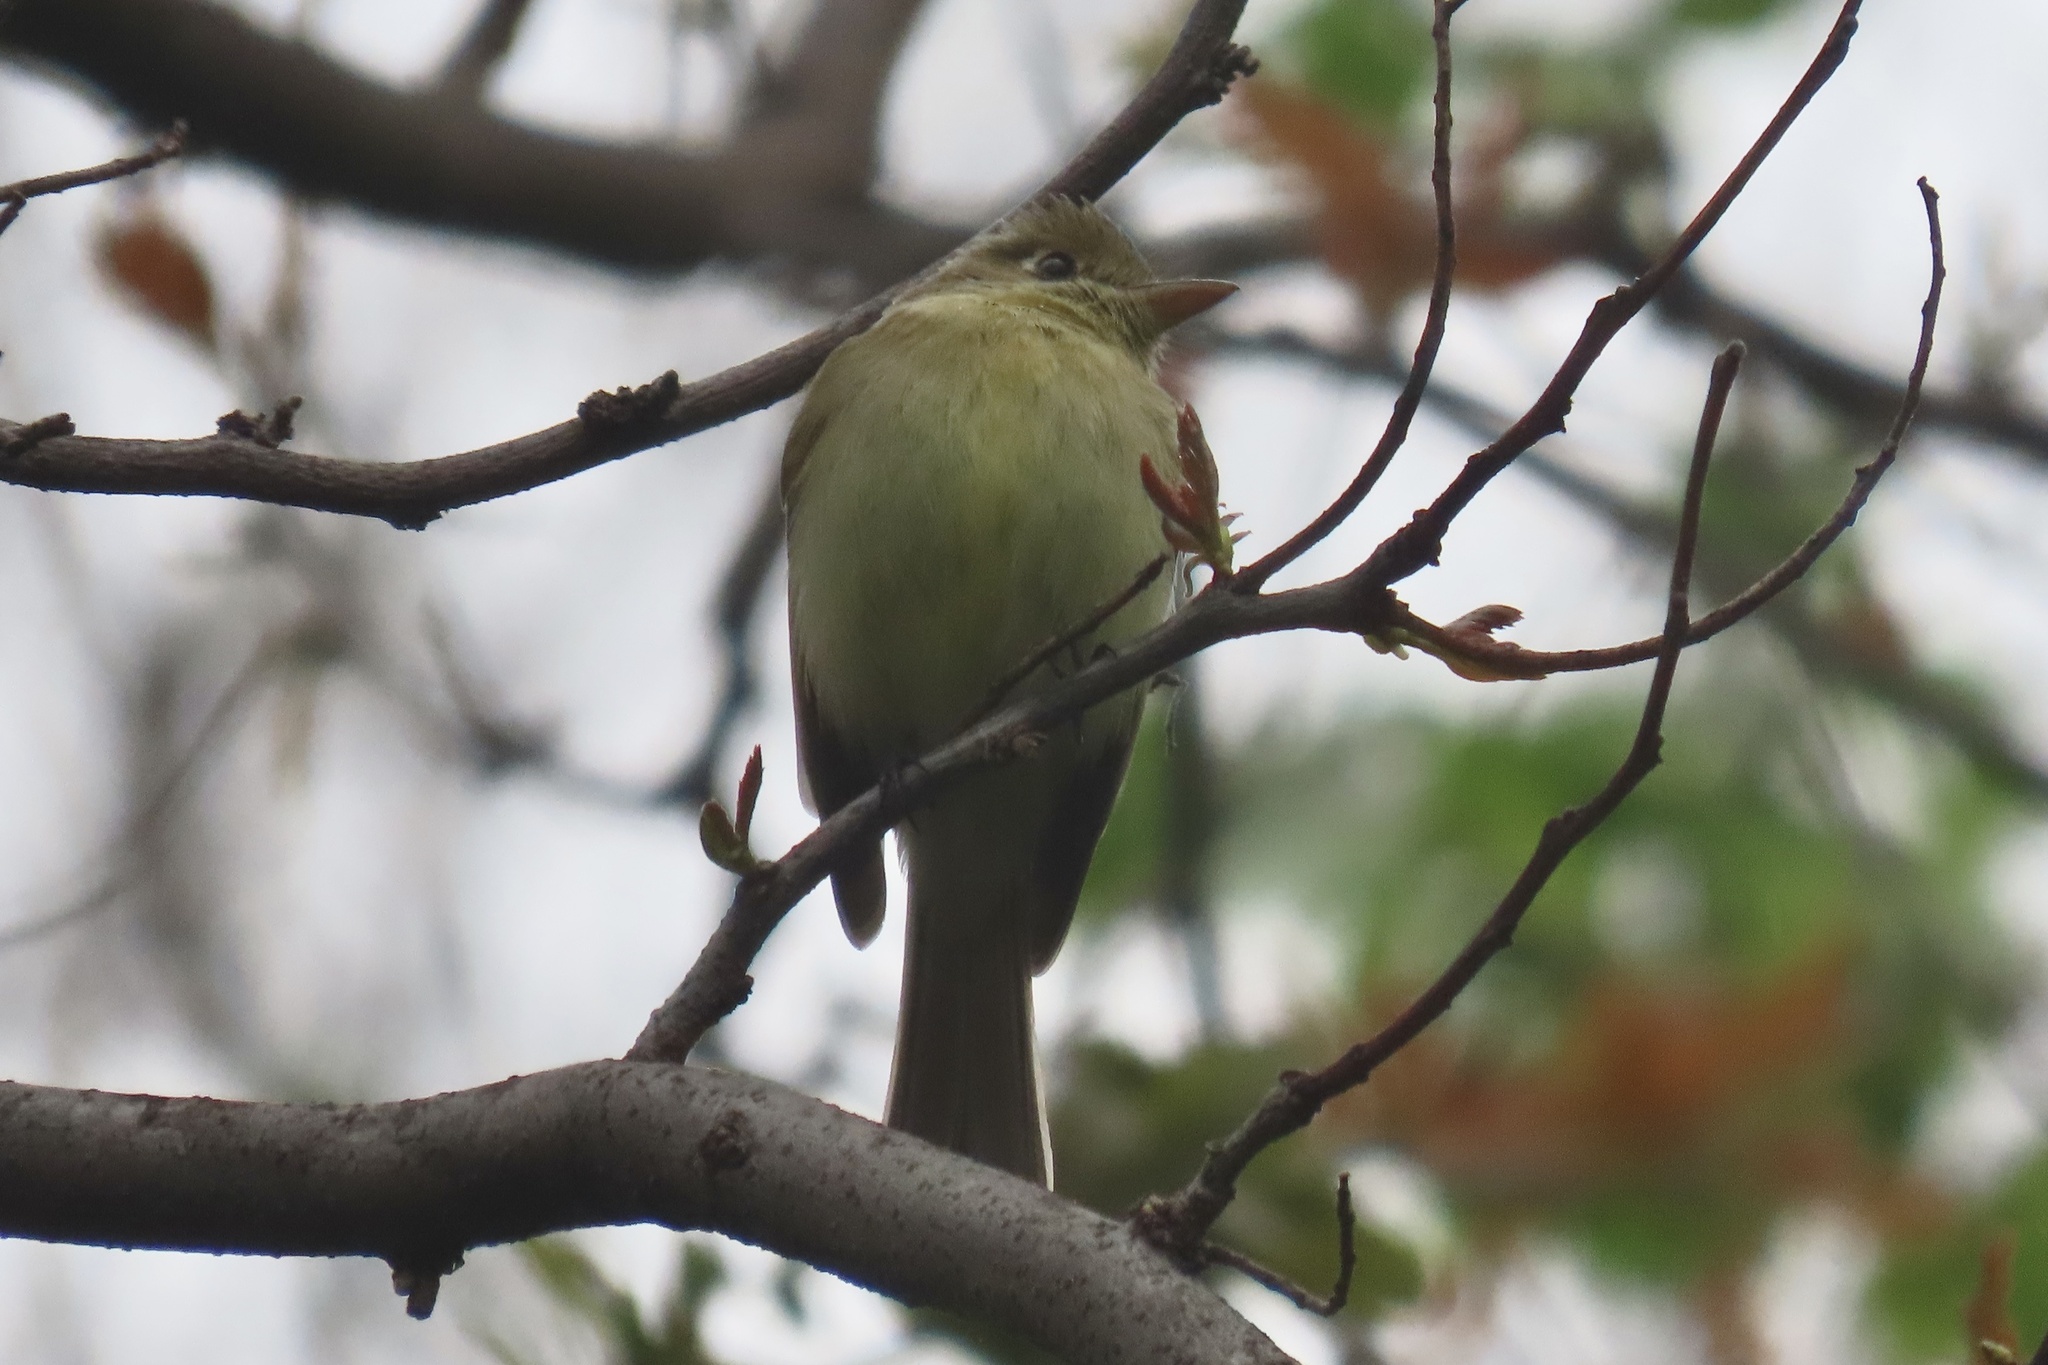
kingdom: Animalia
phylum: Chordata
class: Aves
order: Passeriformes
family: Tyrannidae
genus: Empidonax
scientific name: Empidonax difficilis
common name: Pacific-slope flycatcher
